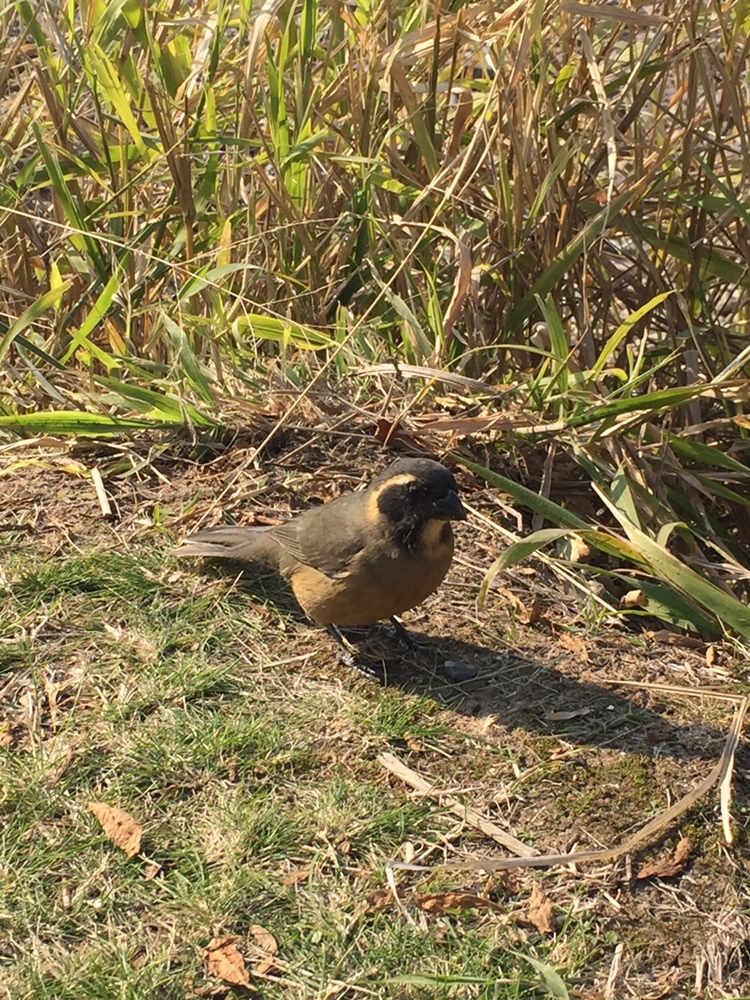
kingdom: Animalia
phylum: Chordata
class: Aves
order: Passeriformes
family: Thraupidae
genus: Saltator
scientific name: Saltator aurantiirostris
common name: Golden-billed saltator
